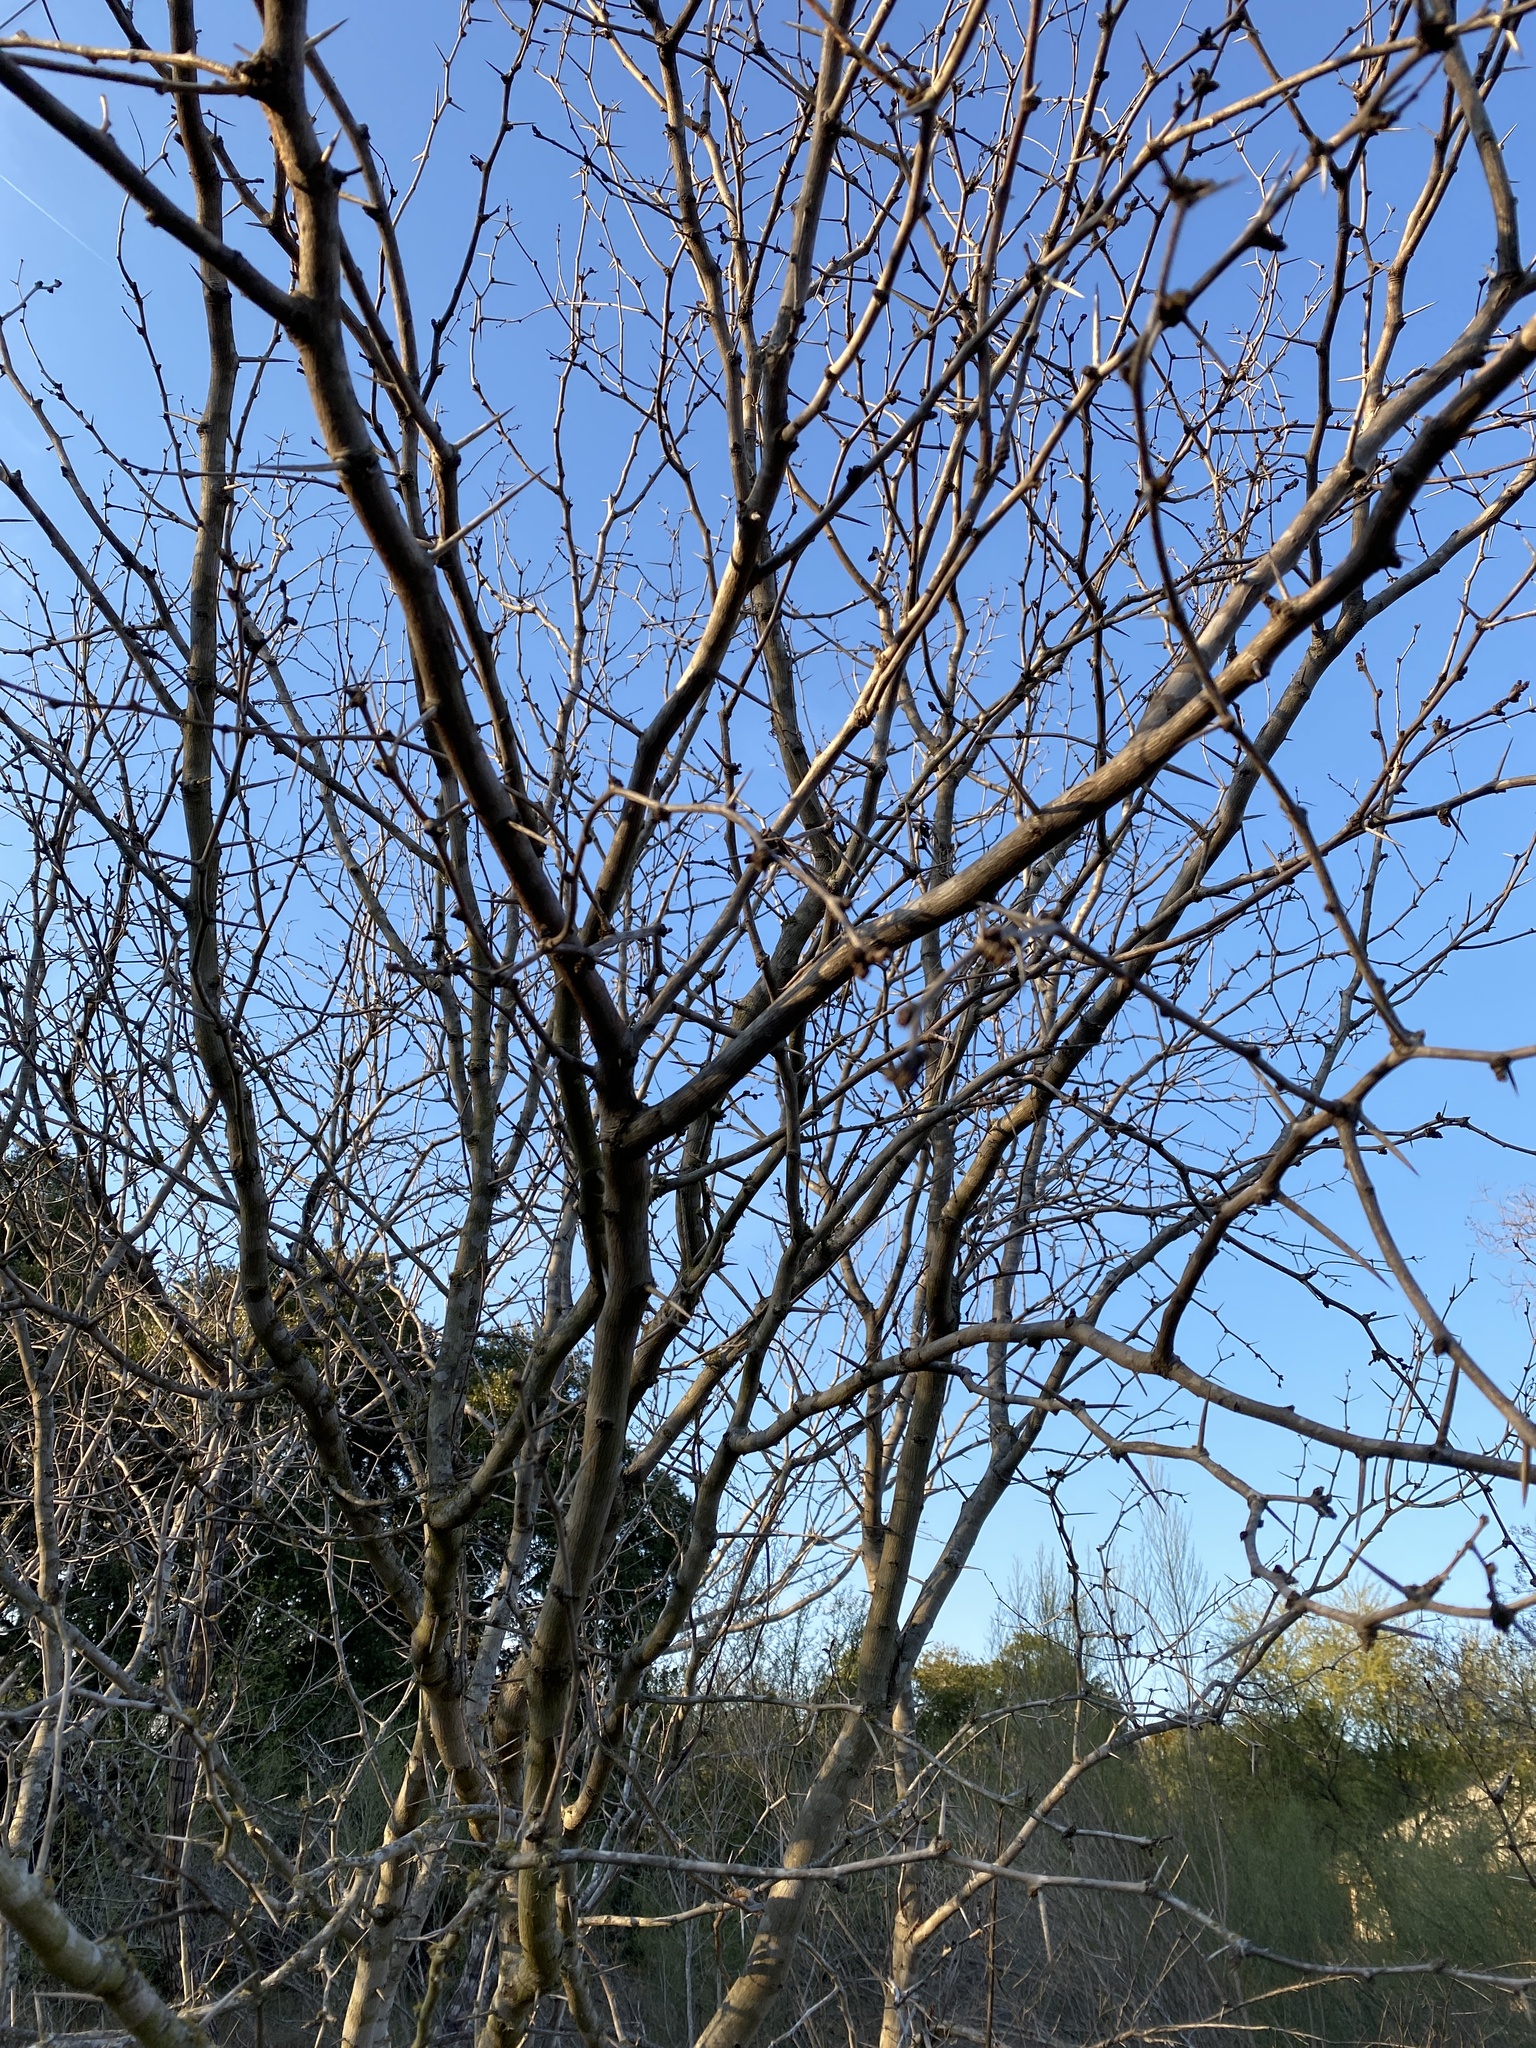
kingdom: Plantae
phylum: Tracheophyta
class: Magnoliopsida
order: Fabales
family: Fabaceae
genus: Prosopis
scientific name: Prosopis glandulosa
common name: Honey mesquite
